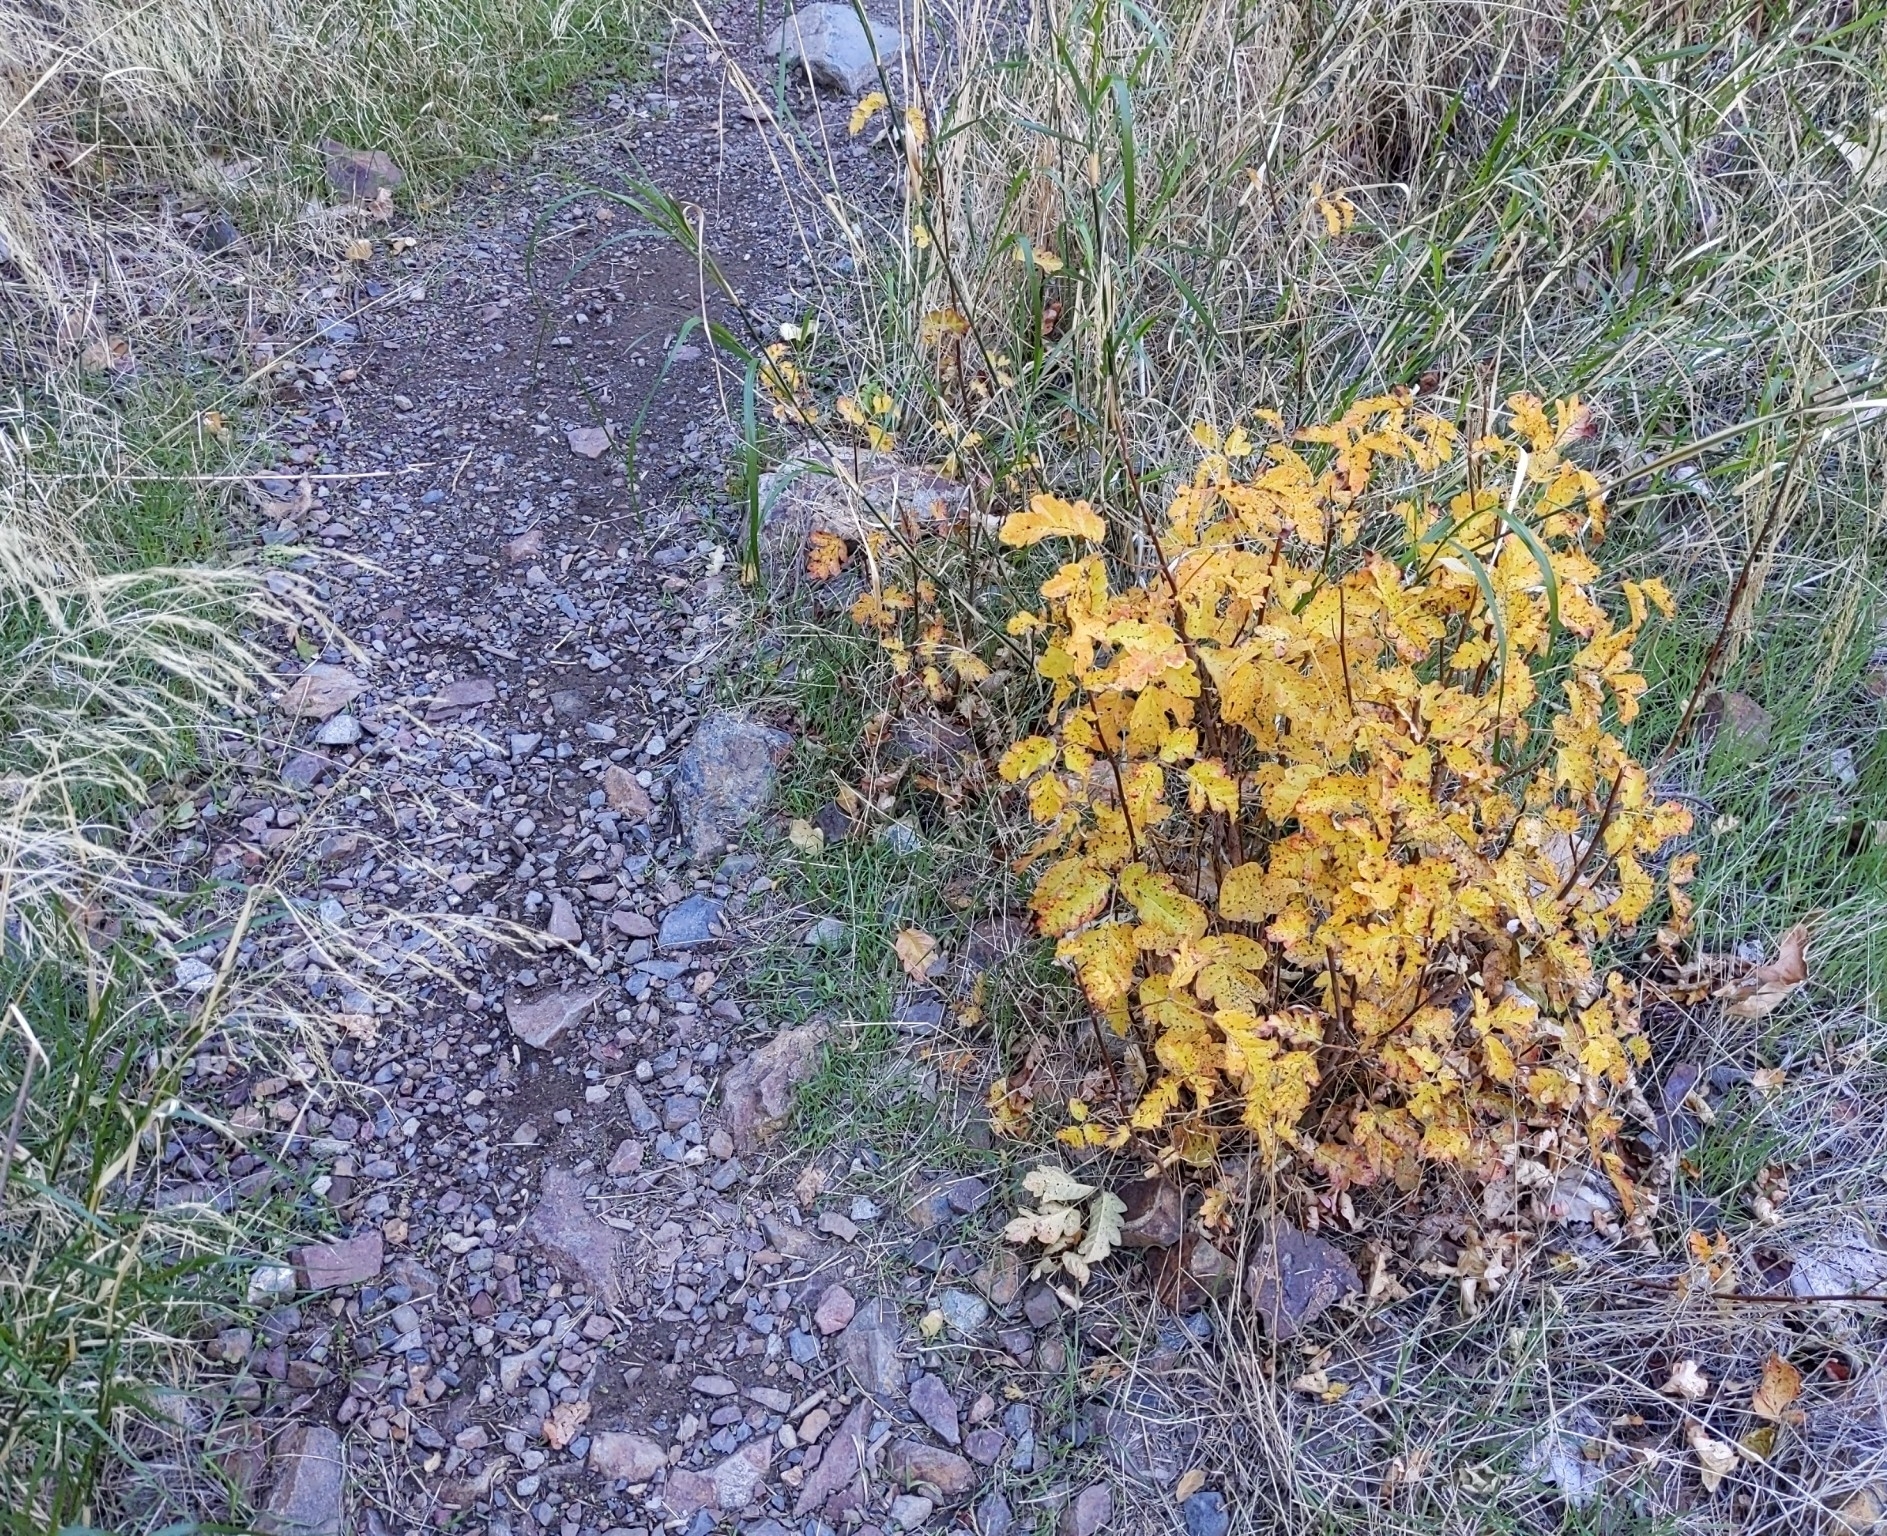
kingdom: Plantae
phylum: Tracheophyta
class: Magnoliopsida
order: Sapindales
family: Anacardiaceae
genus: Toxicodendron
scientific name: Toxicodendron diversilobum
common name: Pacific poison-oak
